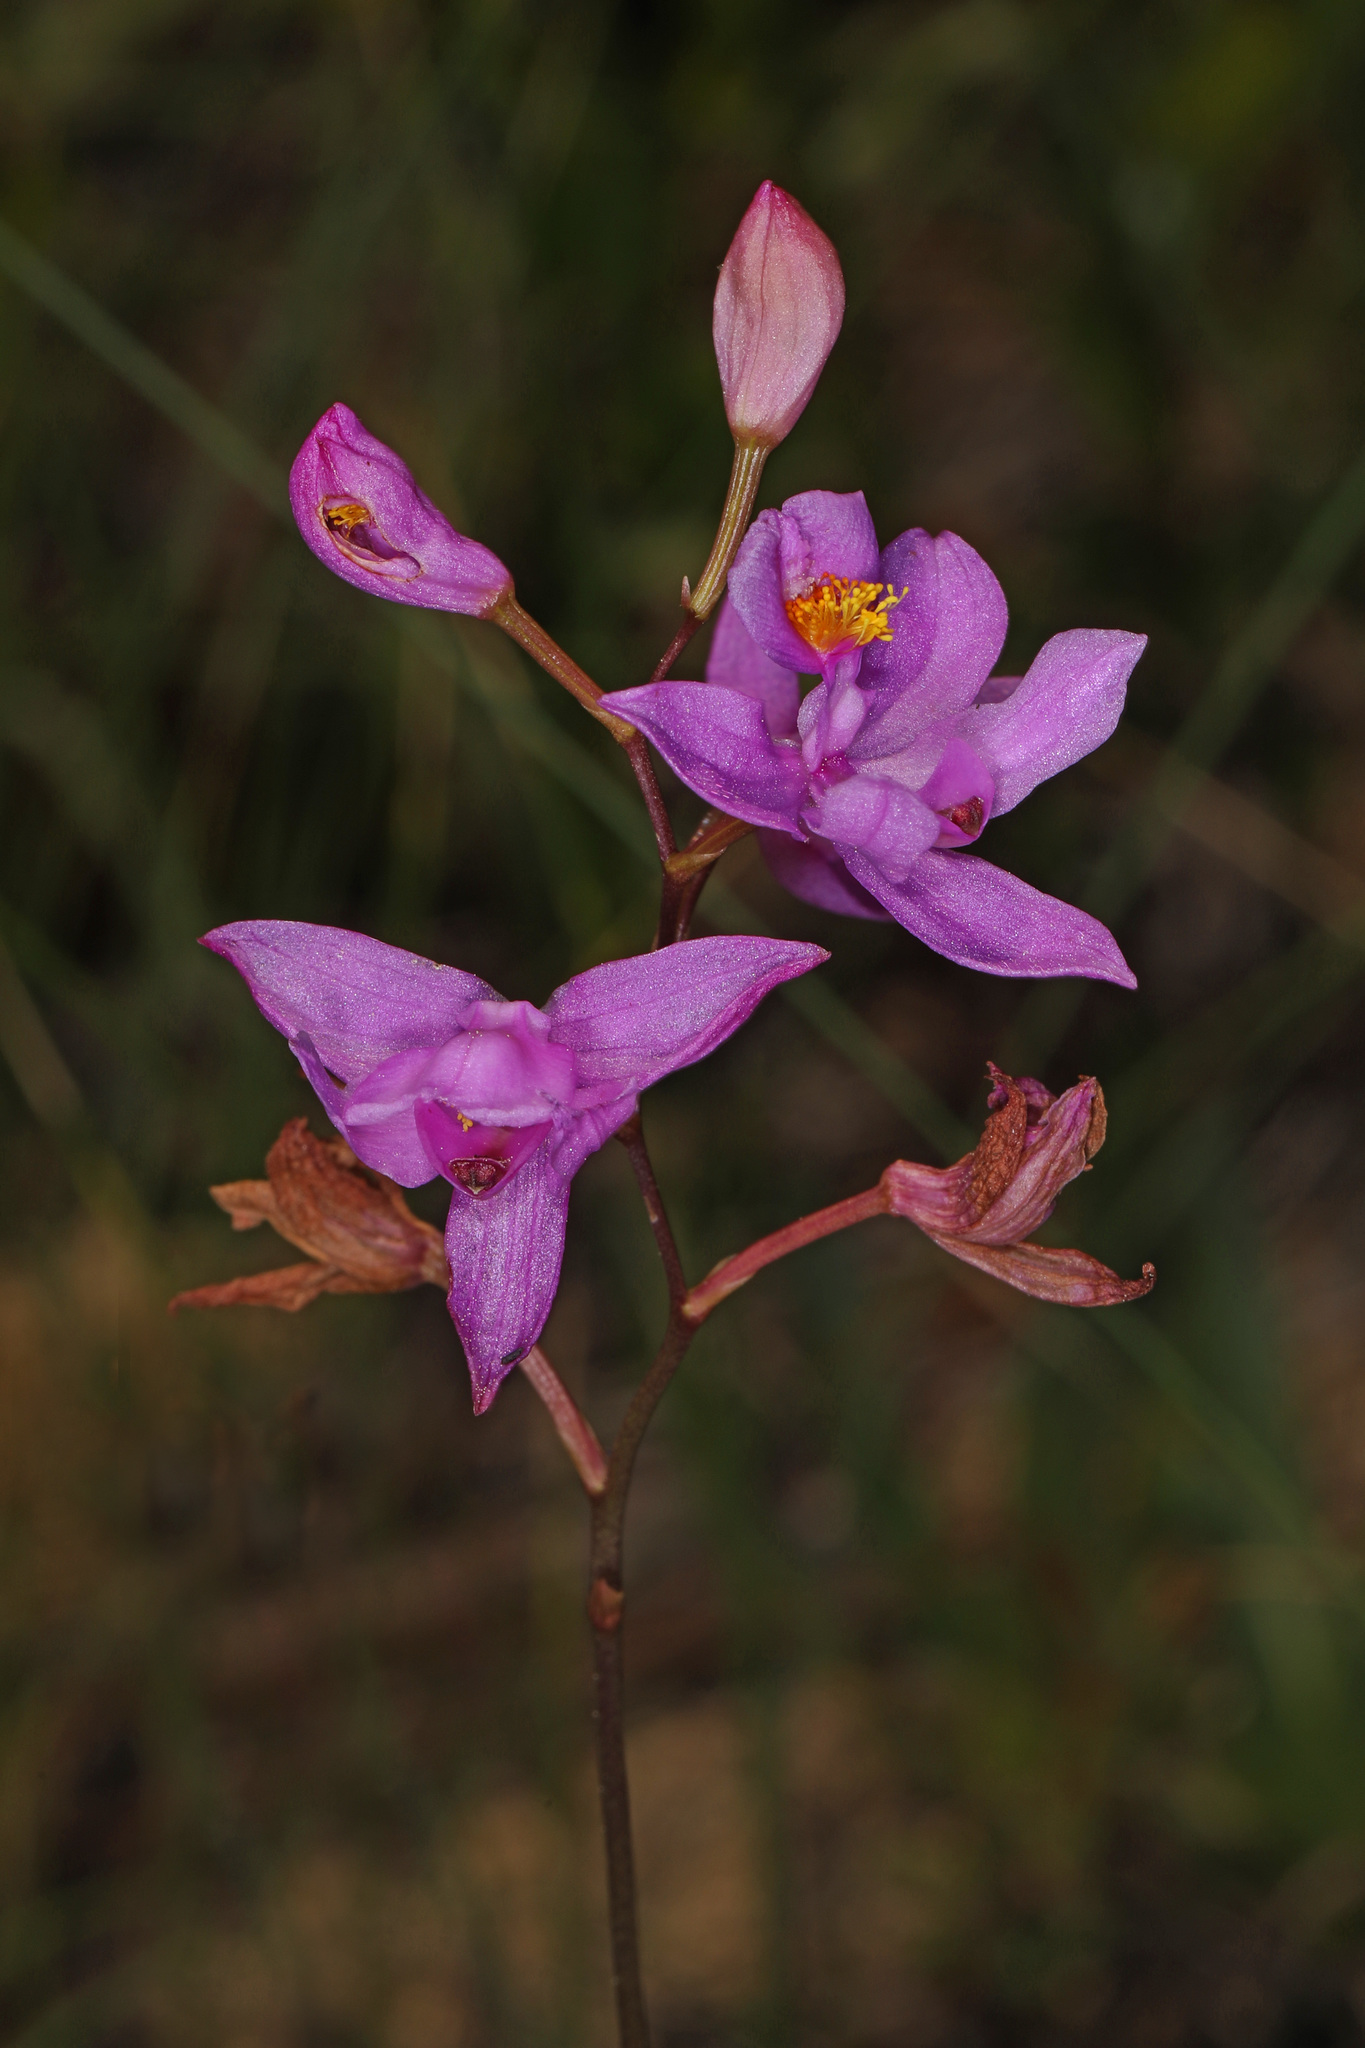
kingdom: Plantae
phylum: Tracheophyta
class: Liliopsida
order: Asparagales
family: Orchidaceae
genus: Calopogon
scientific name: Calopogon barbatus
